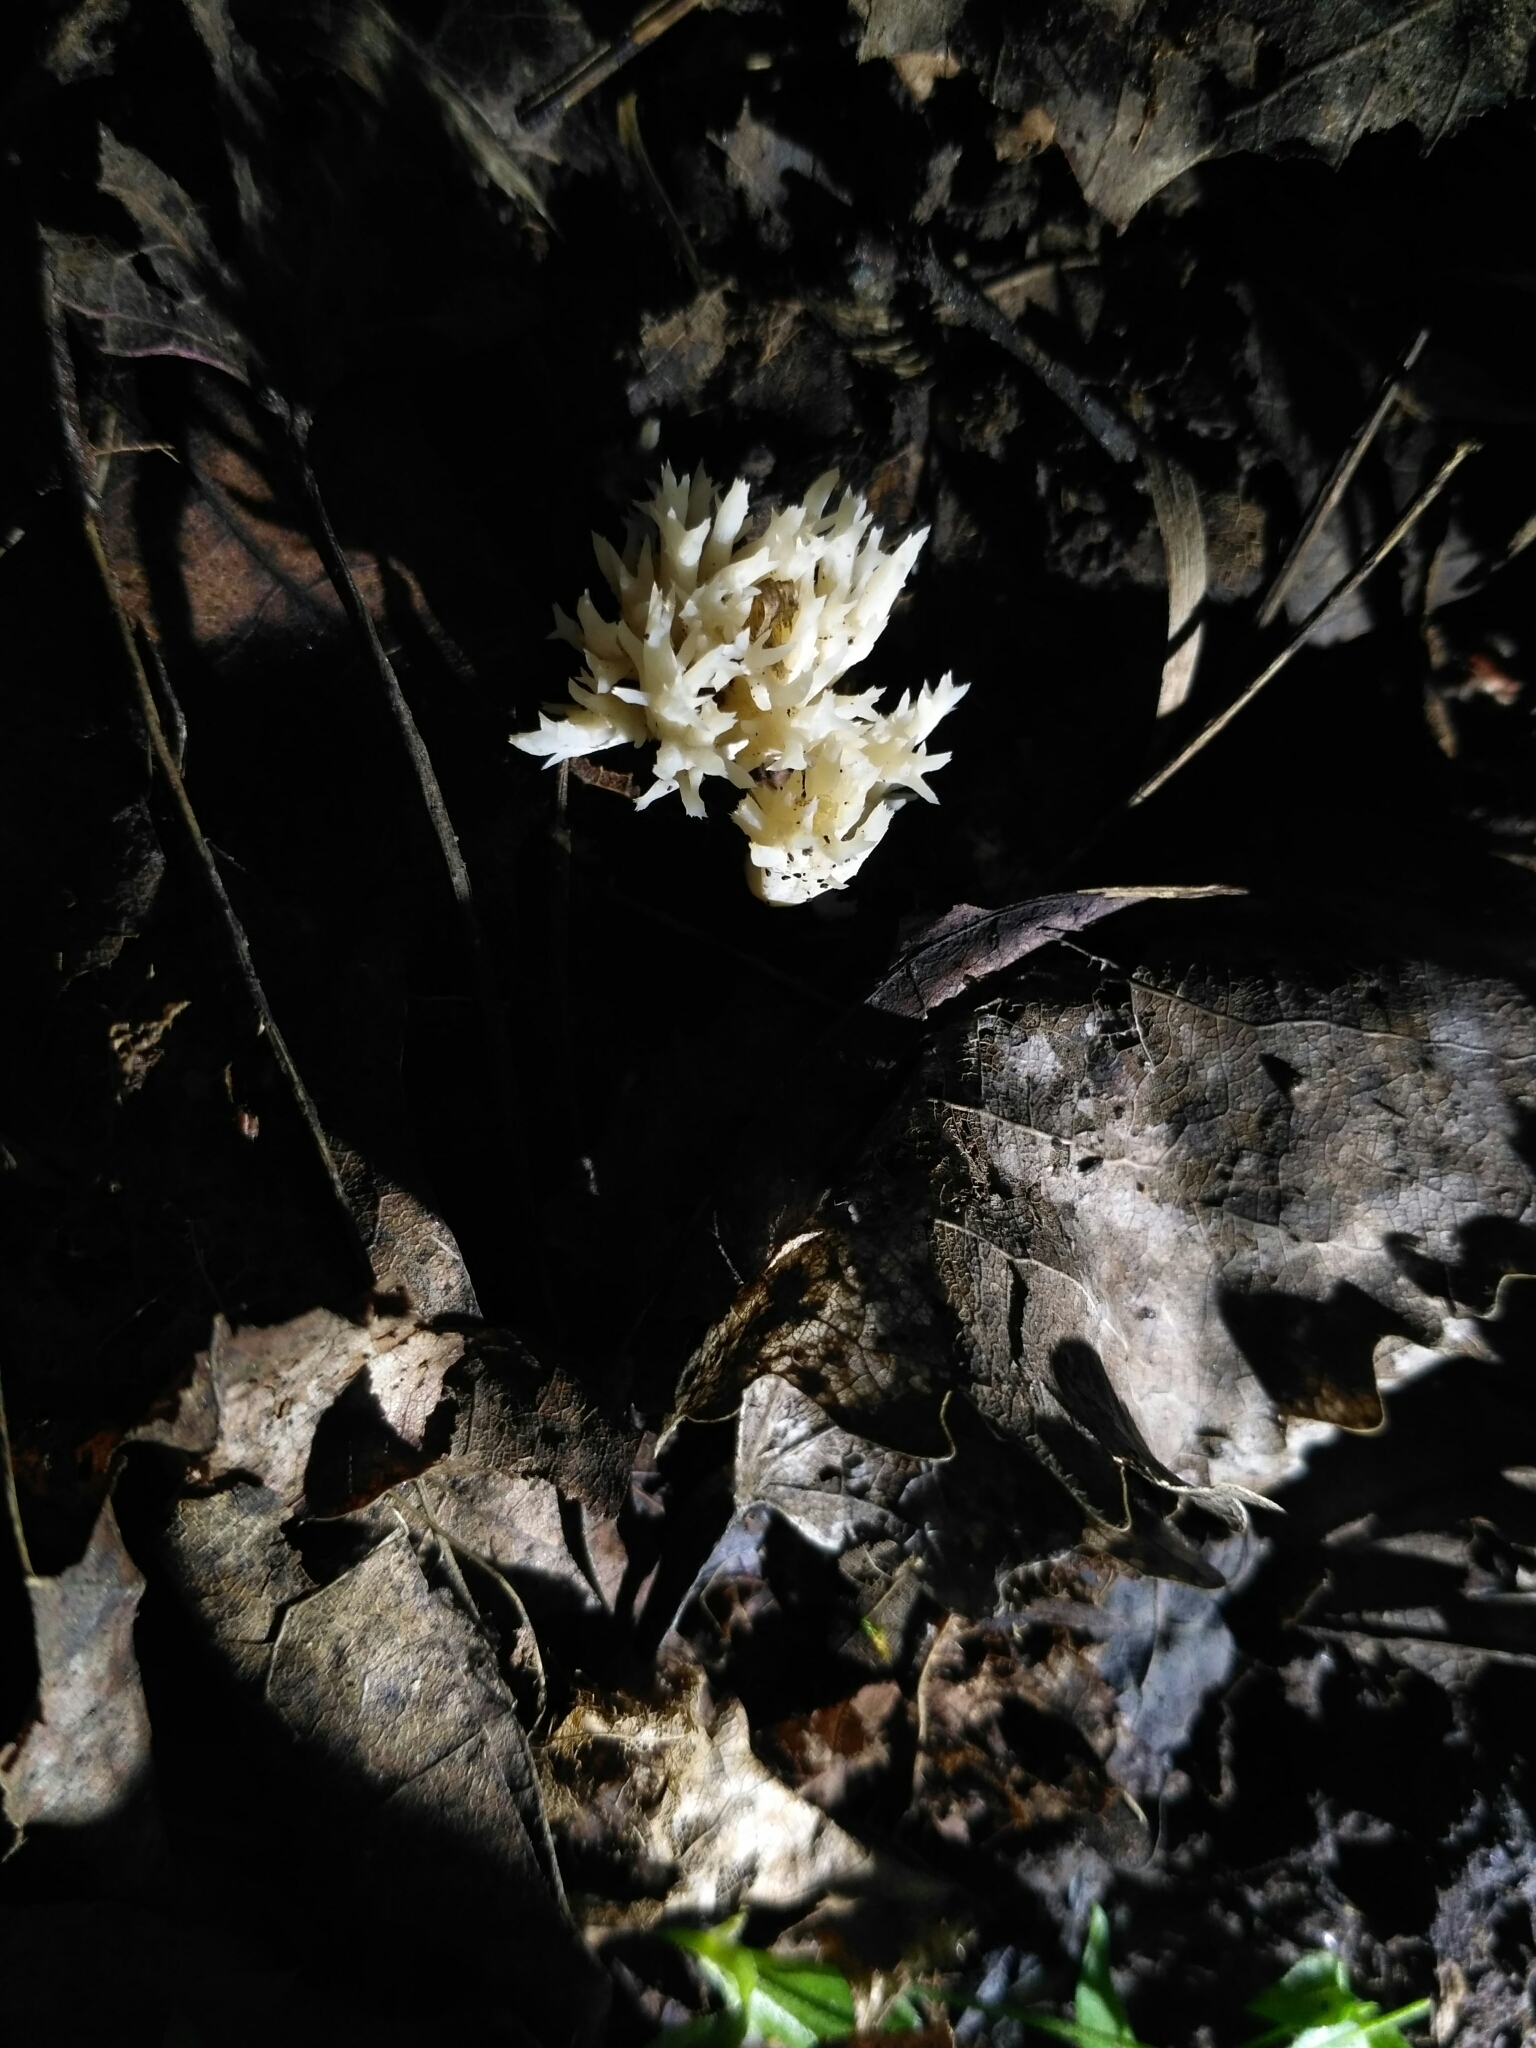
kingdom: Fungi
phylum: Basidiomycota
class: Agaricomycetes
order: Cantharellales
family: Hydnaceae
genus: Clavulina
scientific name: Clavulina coralloides
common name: Crested coral
